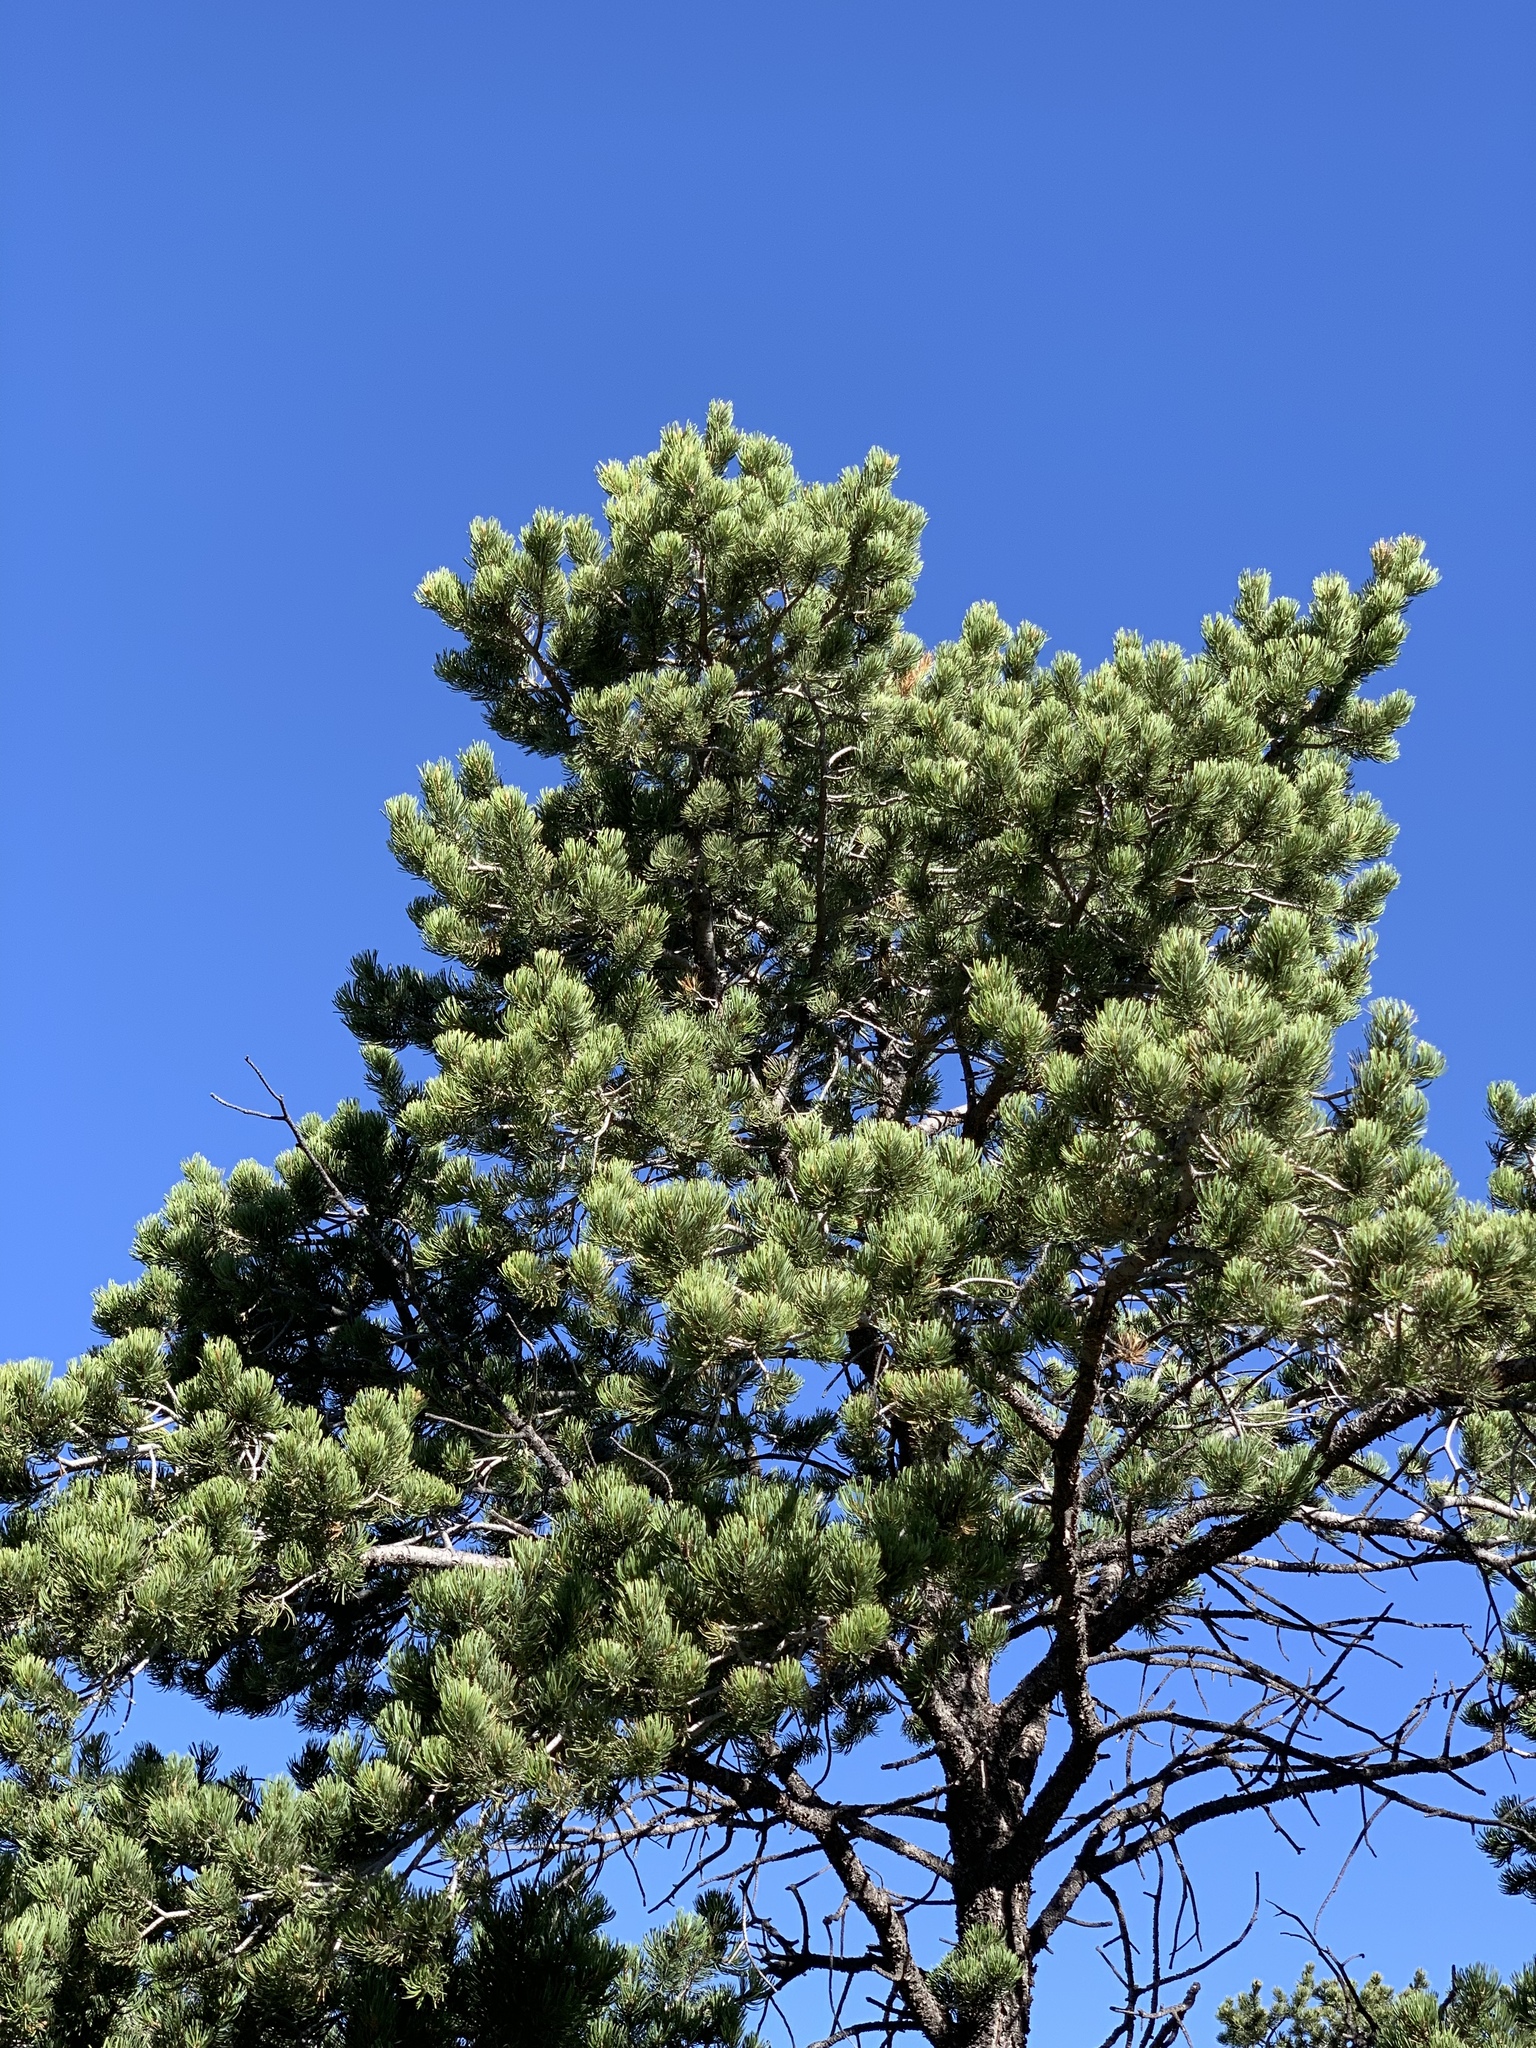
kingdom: Plantae
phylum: Tracheophyta
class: Pinopsida
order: Pinales
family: Pinaceae
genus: Pinus
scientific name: Pinus edulis
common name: Colorado pinyon
